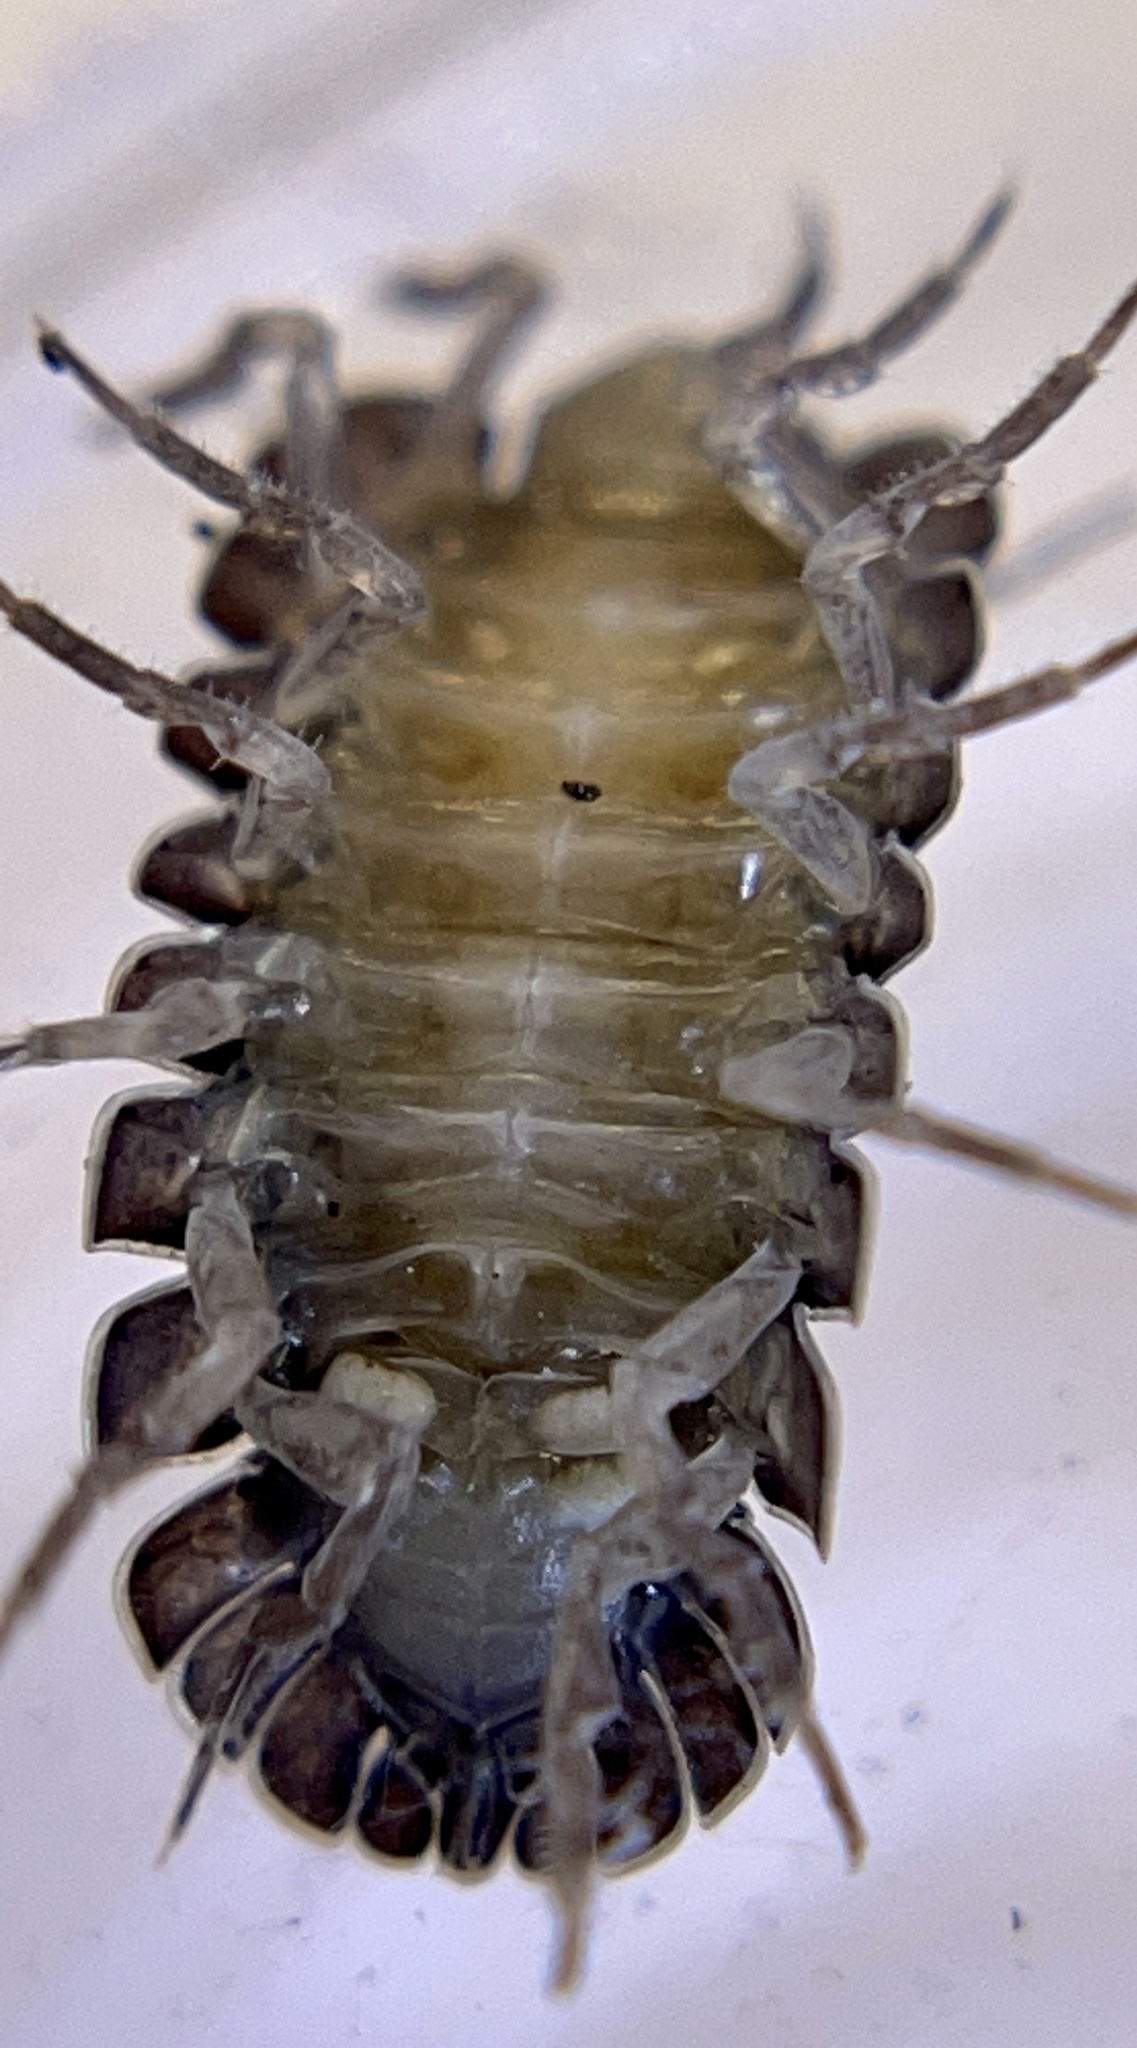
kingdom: Animalia
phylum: Arthropoda
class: Malacostraca
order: Isopoda
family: Armadillidiidae
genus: Armadillidium
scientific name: Armadillidium nasatum
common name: Isopod
